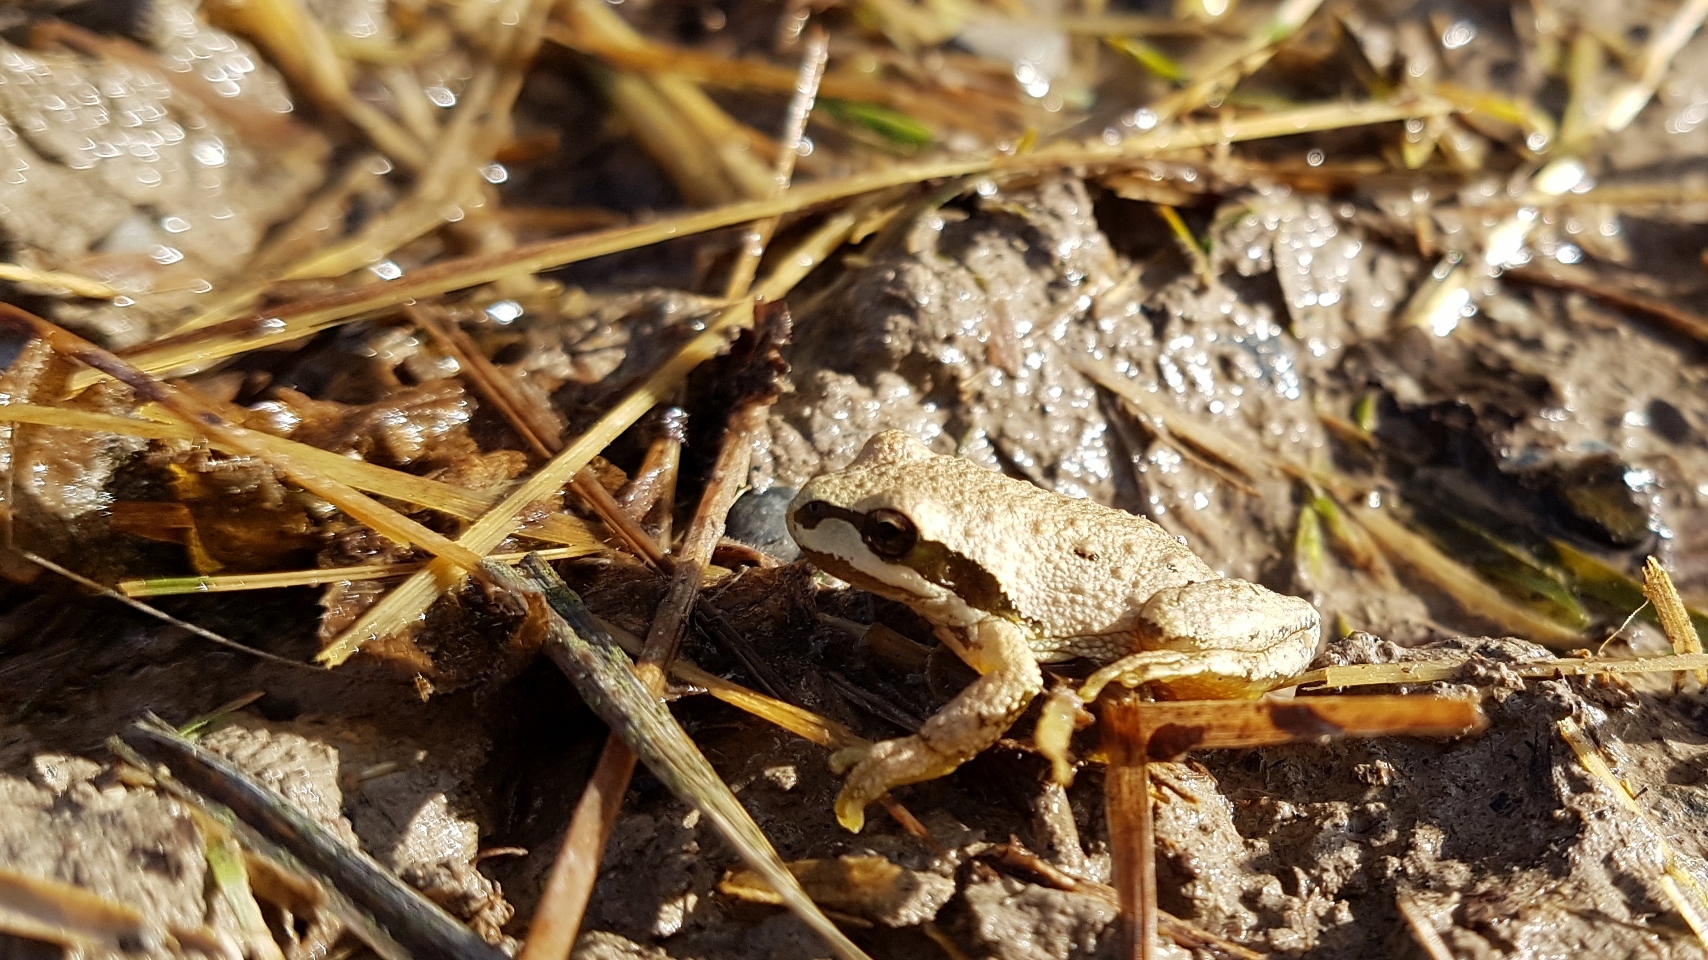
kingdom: Animalia
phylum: Chordata
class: Amphibia
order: Anura
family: Hylidae
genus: Pseudacris
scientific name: Pseudacris regilla
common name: Pacific chorus frog
